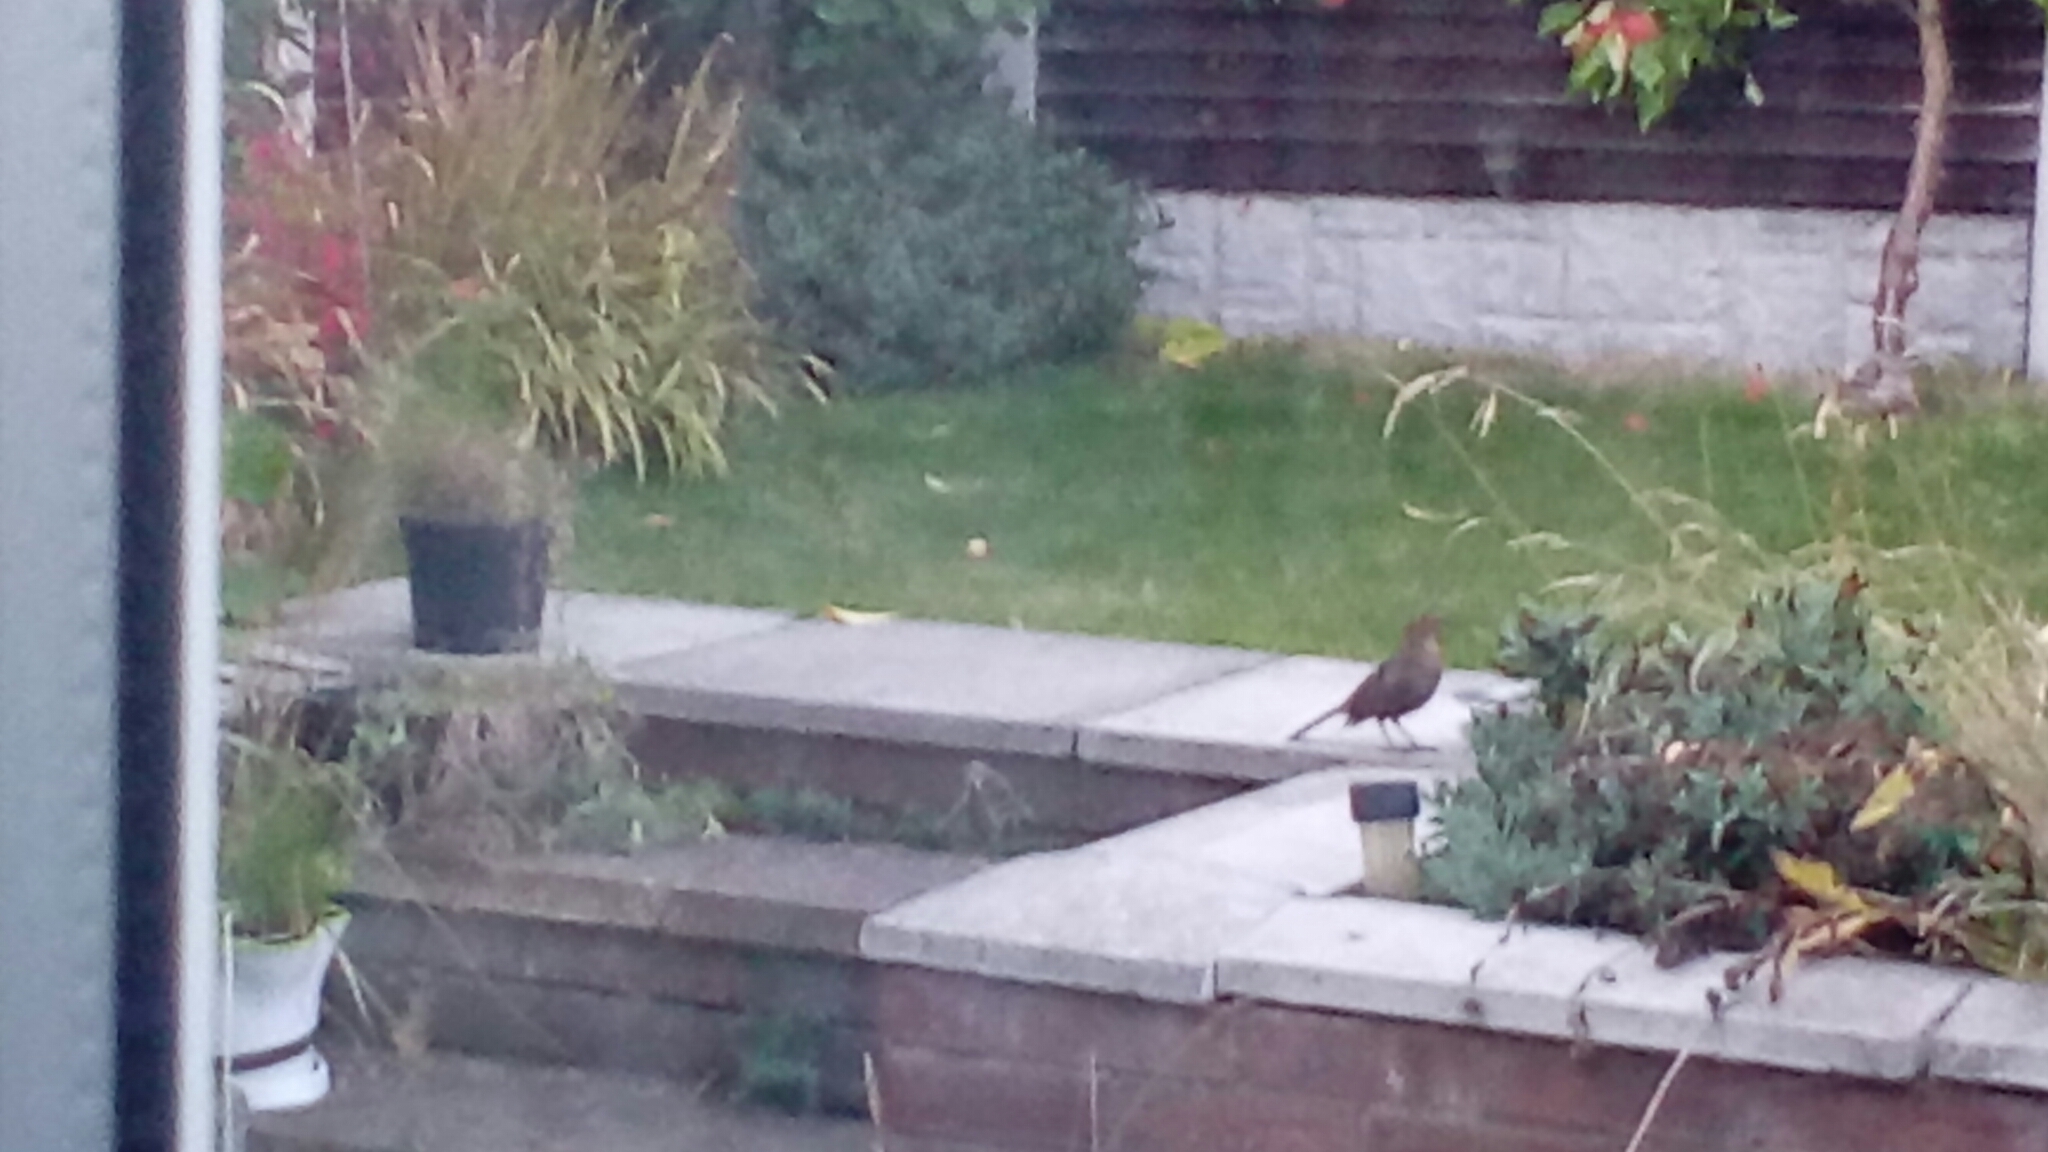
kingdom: Animalia
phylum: Chordata
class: Aves
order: Passeriformes
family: Turdidae
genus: Turdus
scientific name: Turdus merula
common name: Common blackbird
